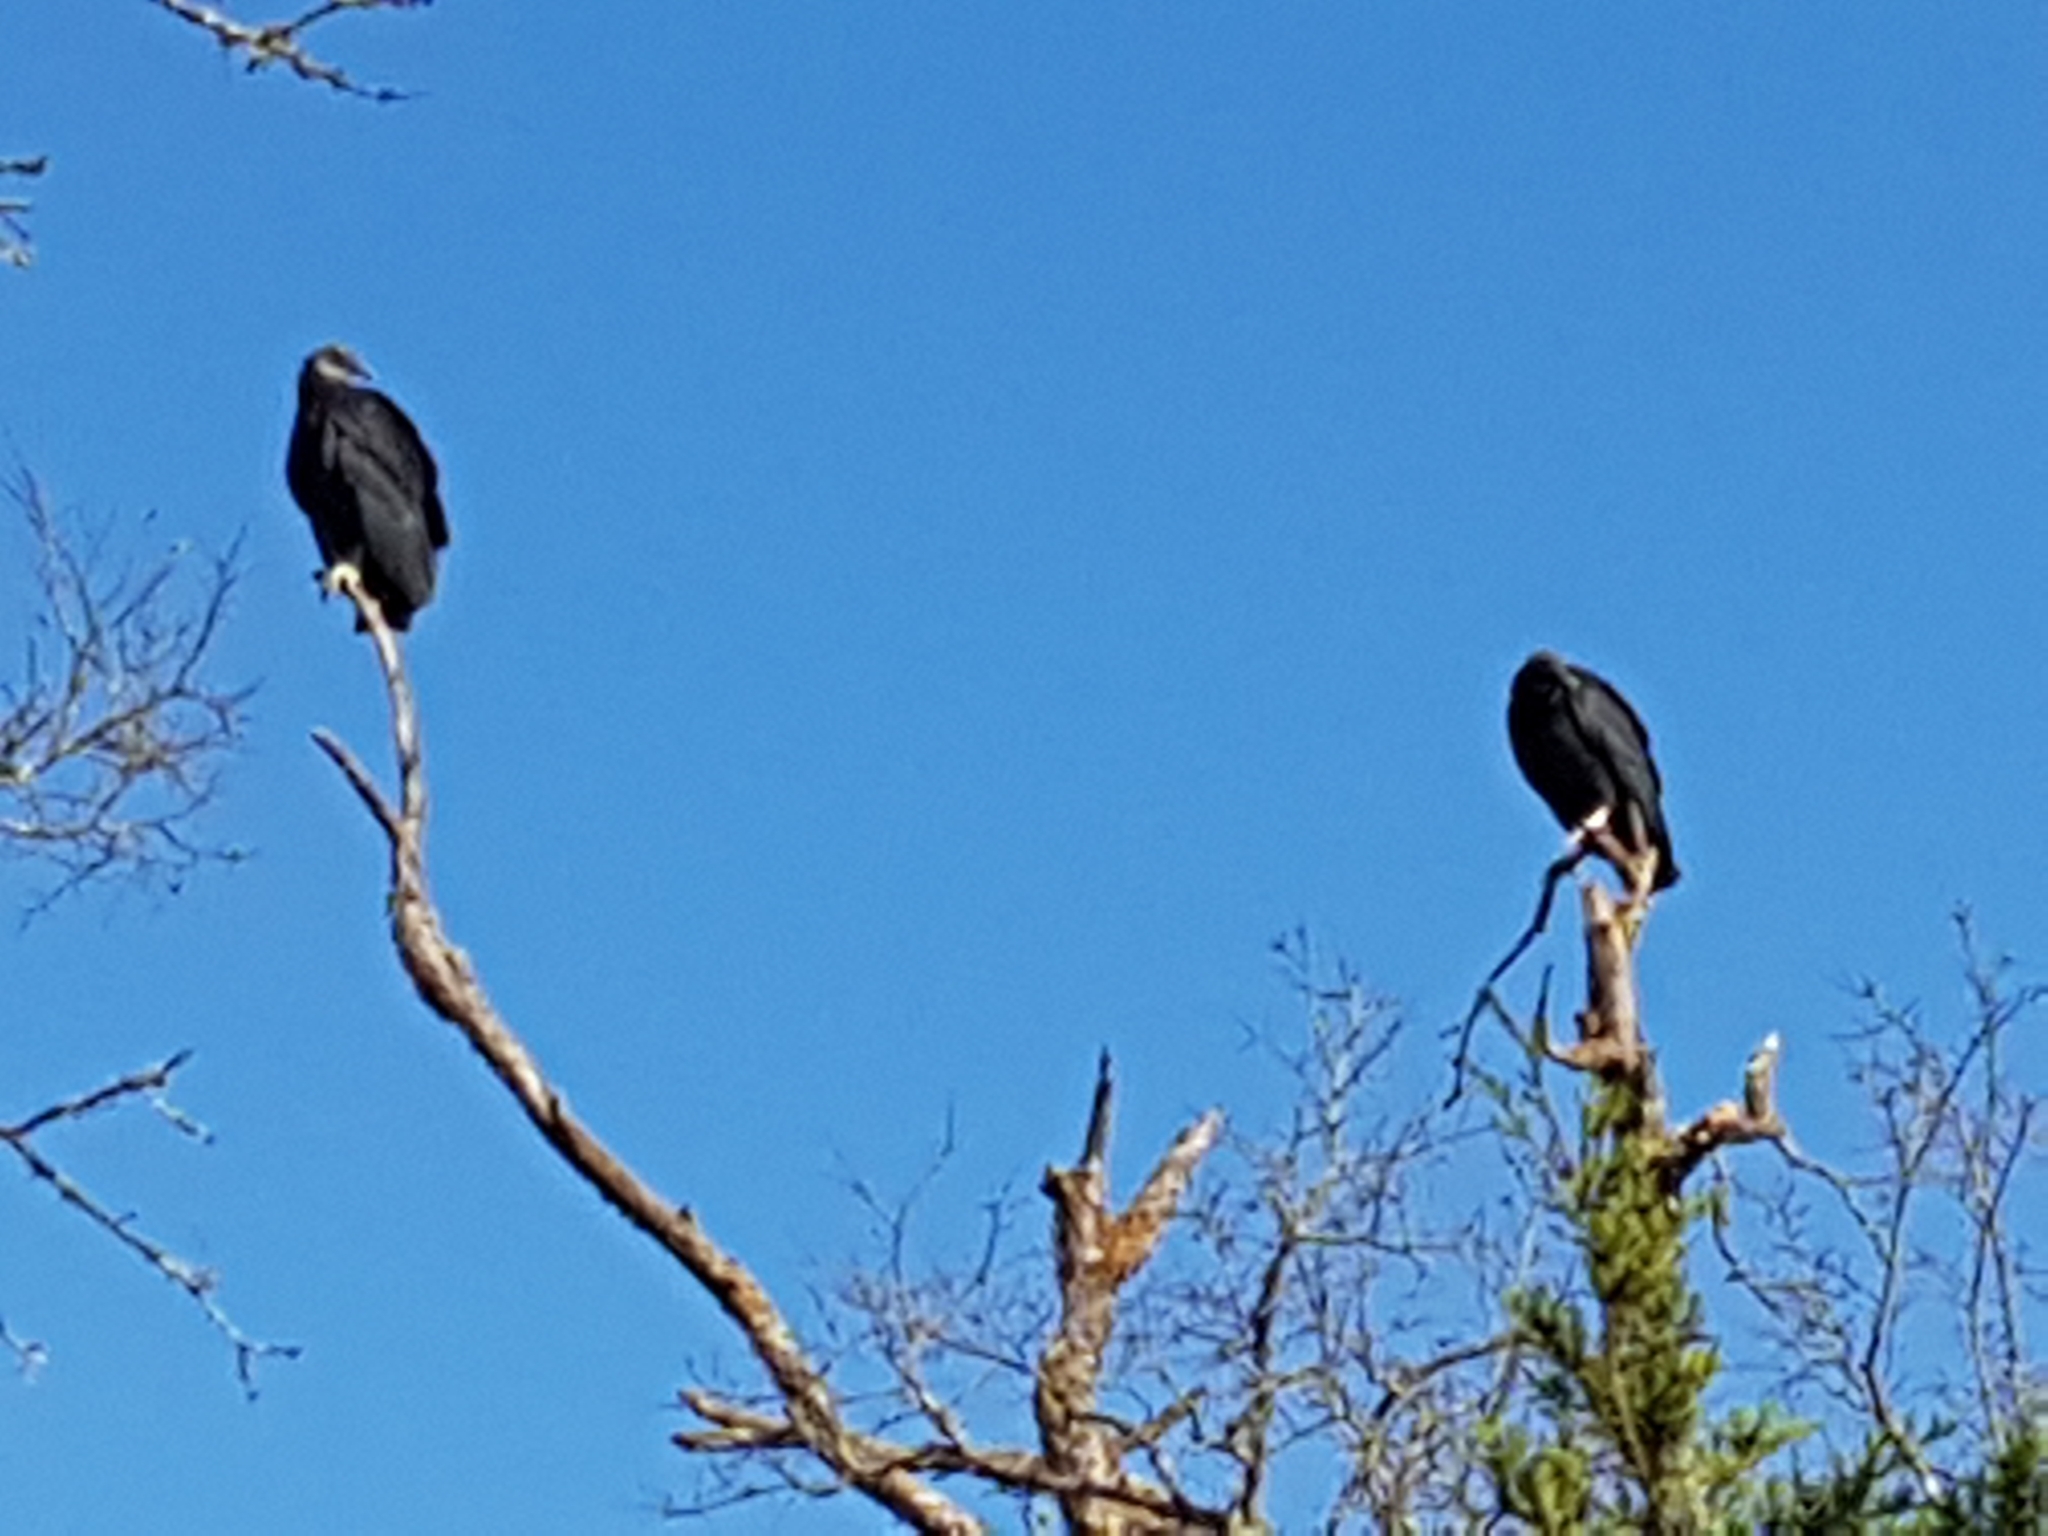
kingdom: Animalia
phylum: Chordata
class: Aves
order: Accipitriformes
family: Cathartidae
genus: Coragyps
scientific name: Coragyps atratus
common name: Black vulture
